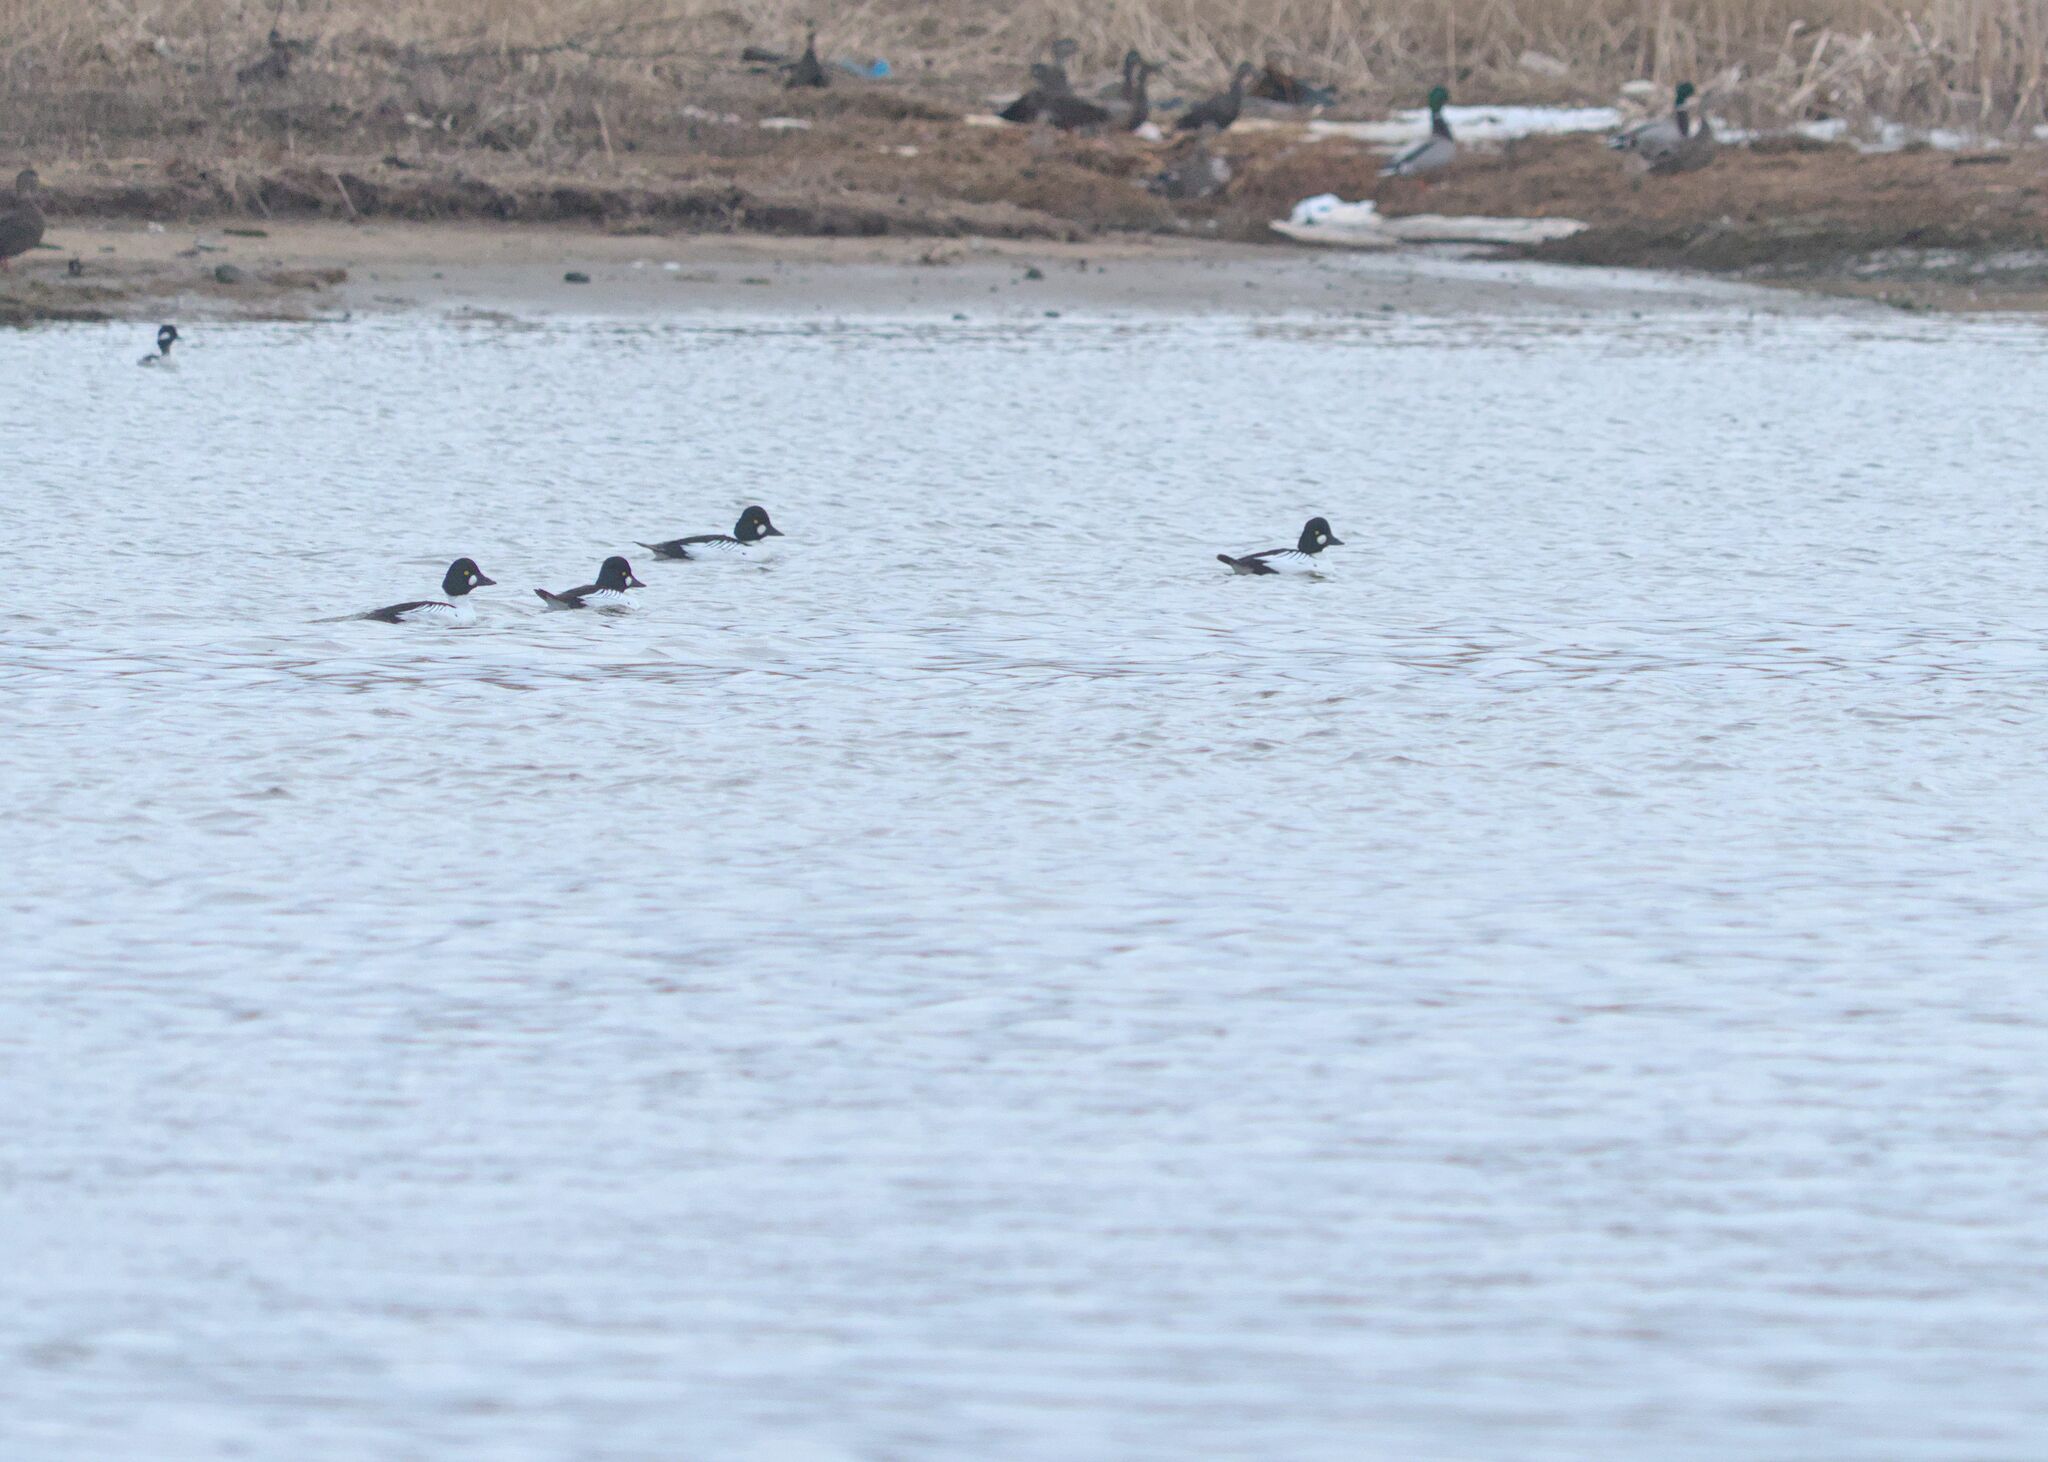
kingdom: Animalia
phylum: Chordata
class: Aves
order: Anseriformes
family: Anatidae
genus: Bucephala
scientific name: Bucephala clangula
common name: Common goldeneye
